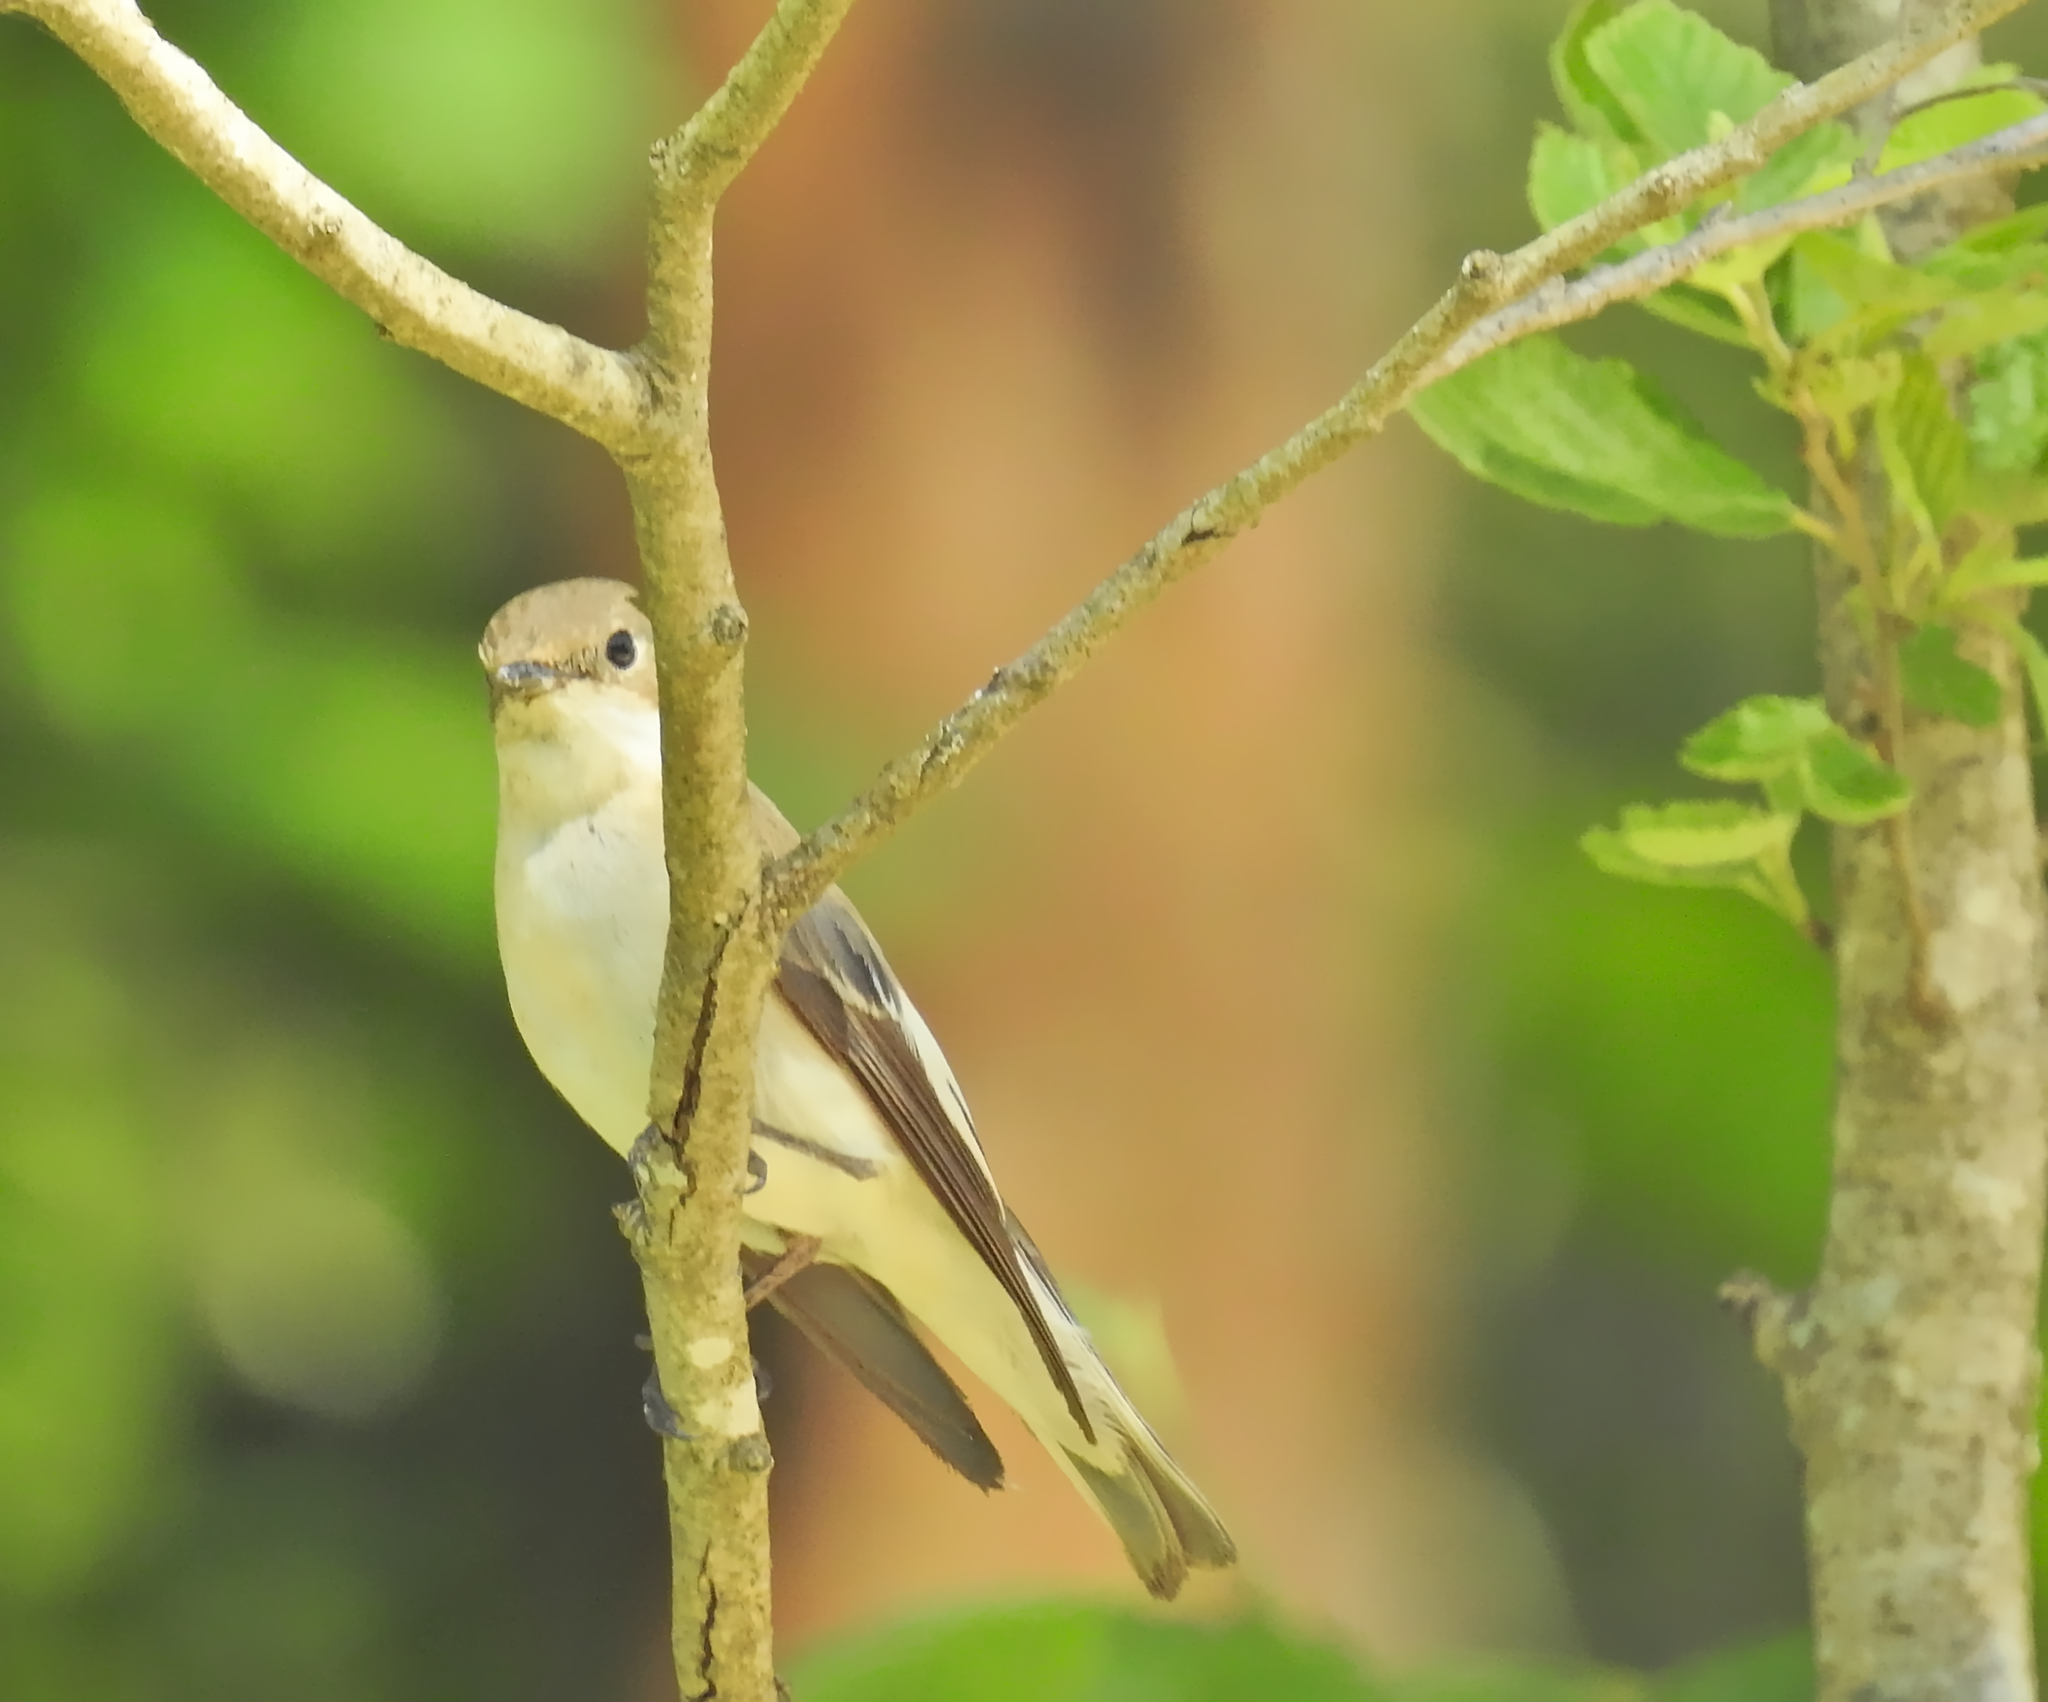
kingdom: Animalia
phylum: Chordata
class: Aves
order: Passeriformes
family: Muscicapidae
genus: Ficedula
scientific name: Ficedula hypoleuca
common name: European pied flycatcher
